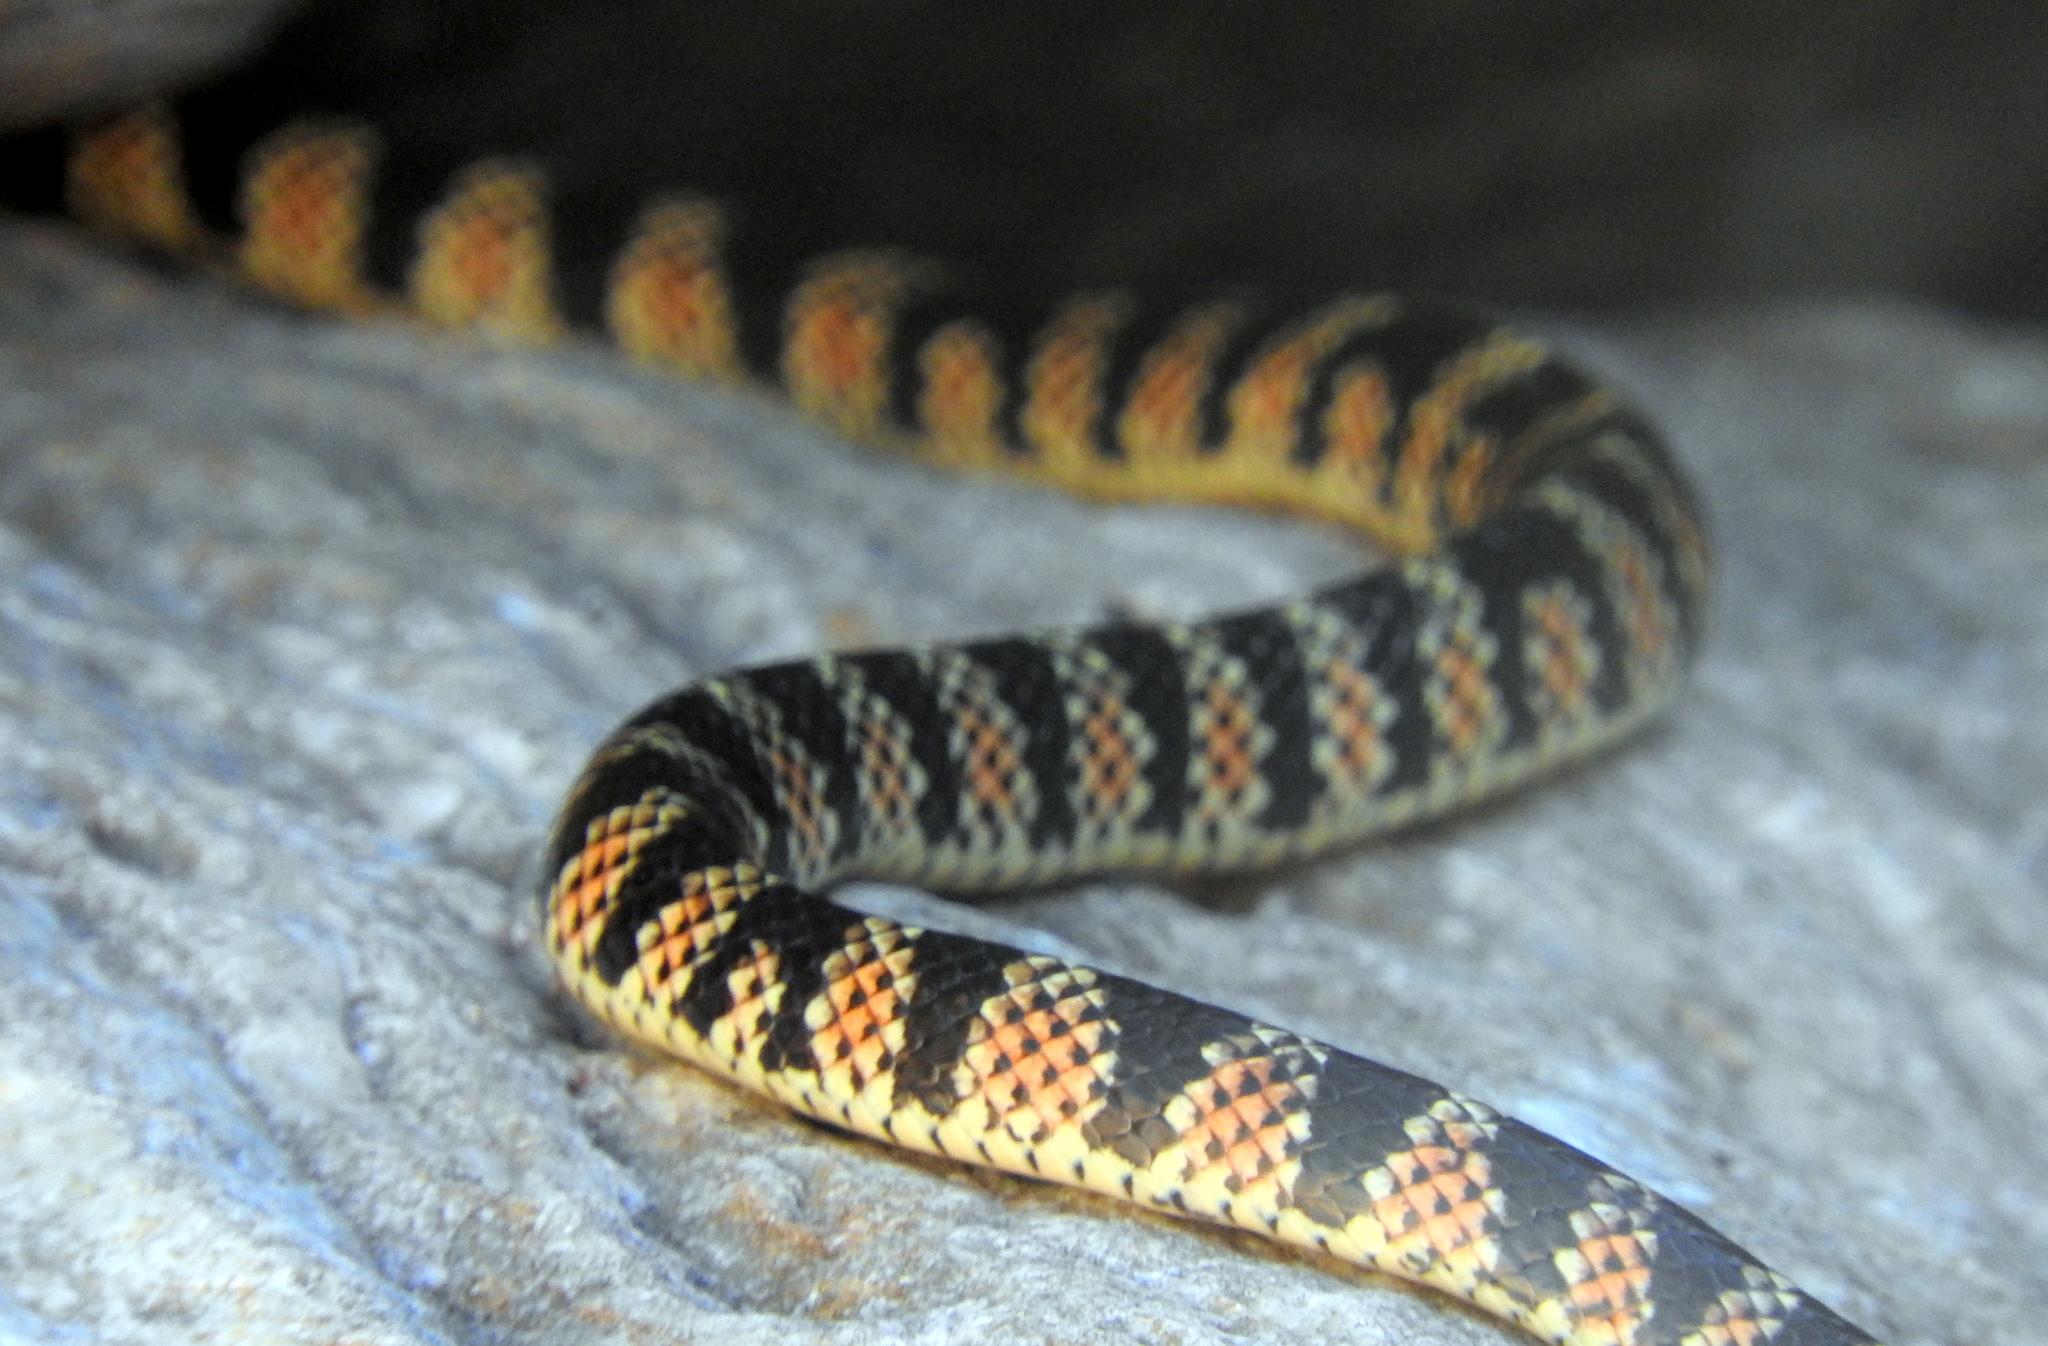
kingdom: Animalia
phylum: Chordata
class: Squamata
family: Colubridae
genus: Oxyrhopus
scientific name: Oxyrhopus rhombifer
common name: Amazon false coral snake
